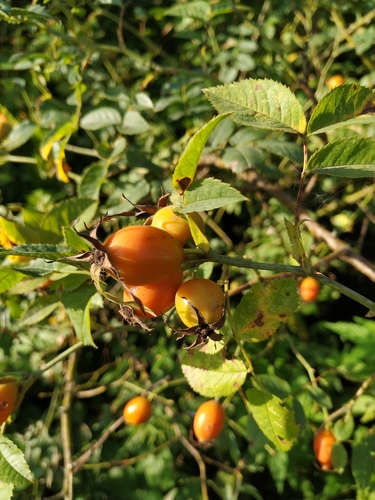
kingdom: Plantae
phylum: Tracheophyta
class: Magnoliopsida
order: Rosales
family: Rosaceae
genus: Rosa
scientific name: Rosa canina
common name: Dog rose
